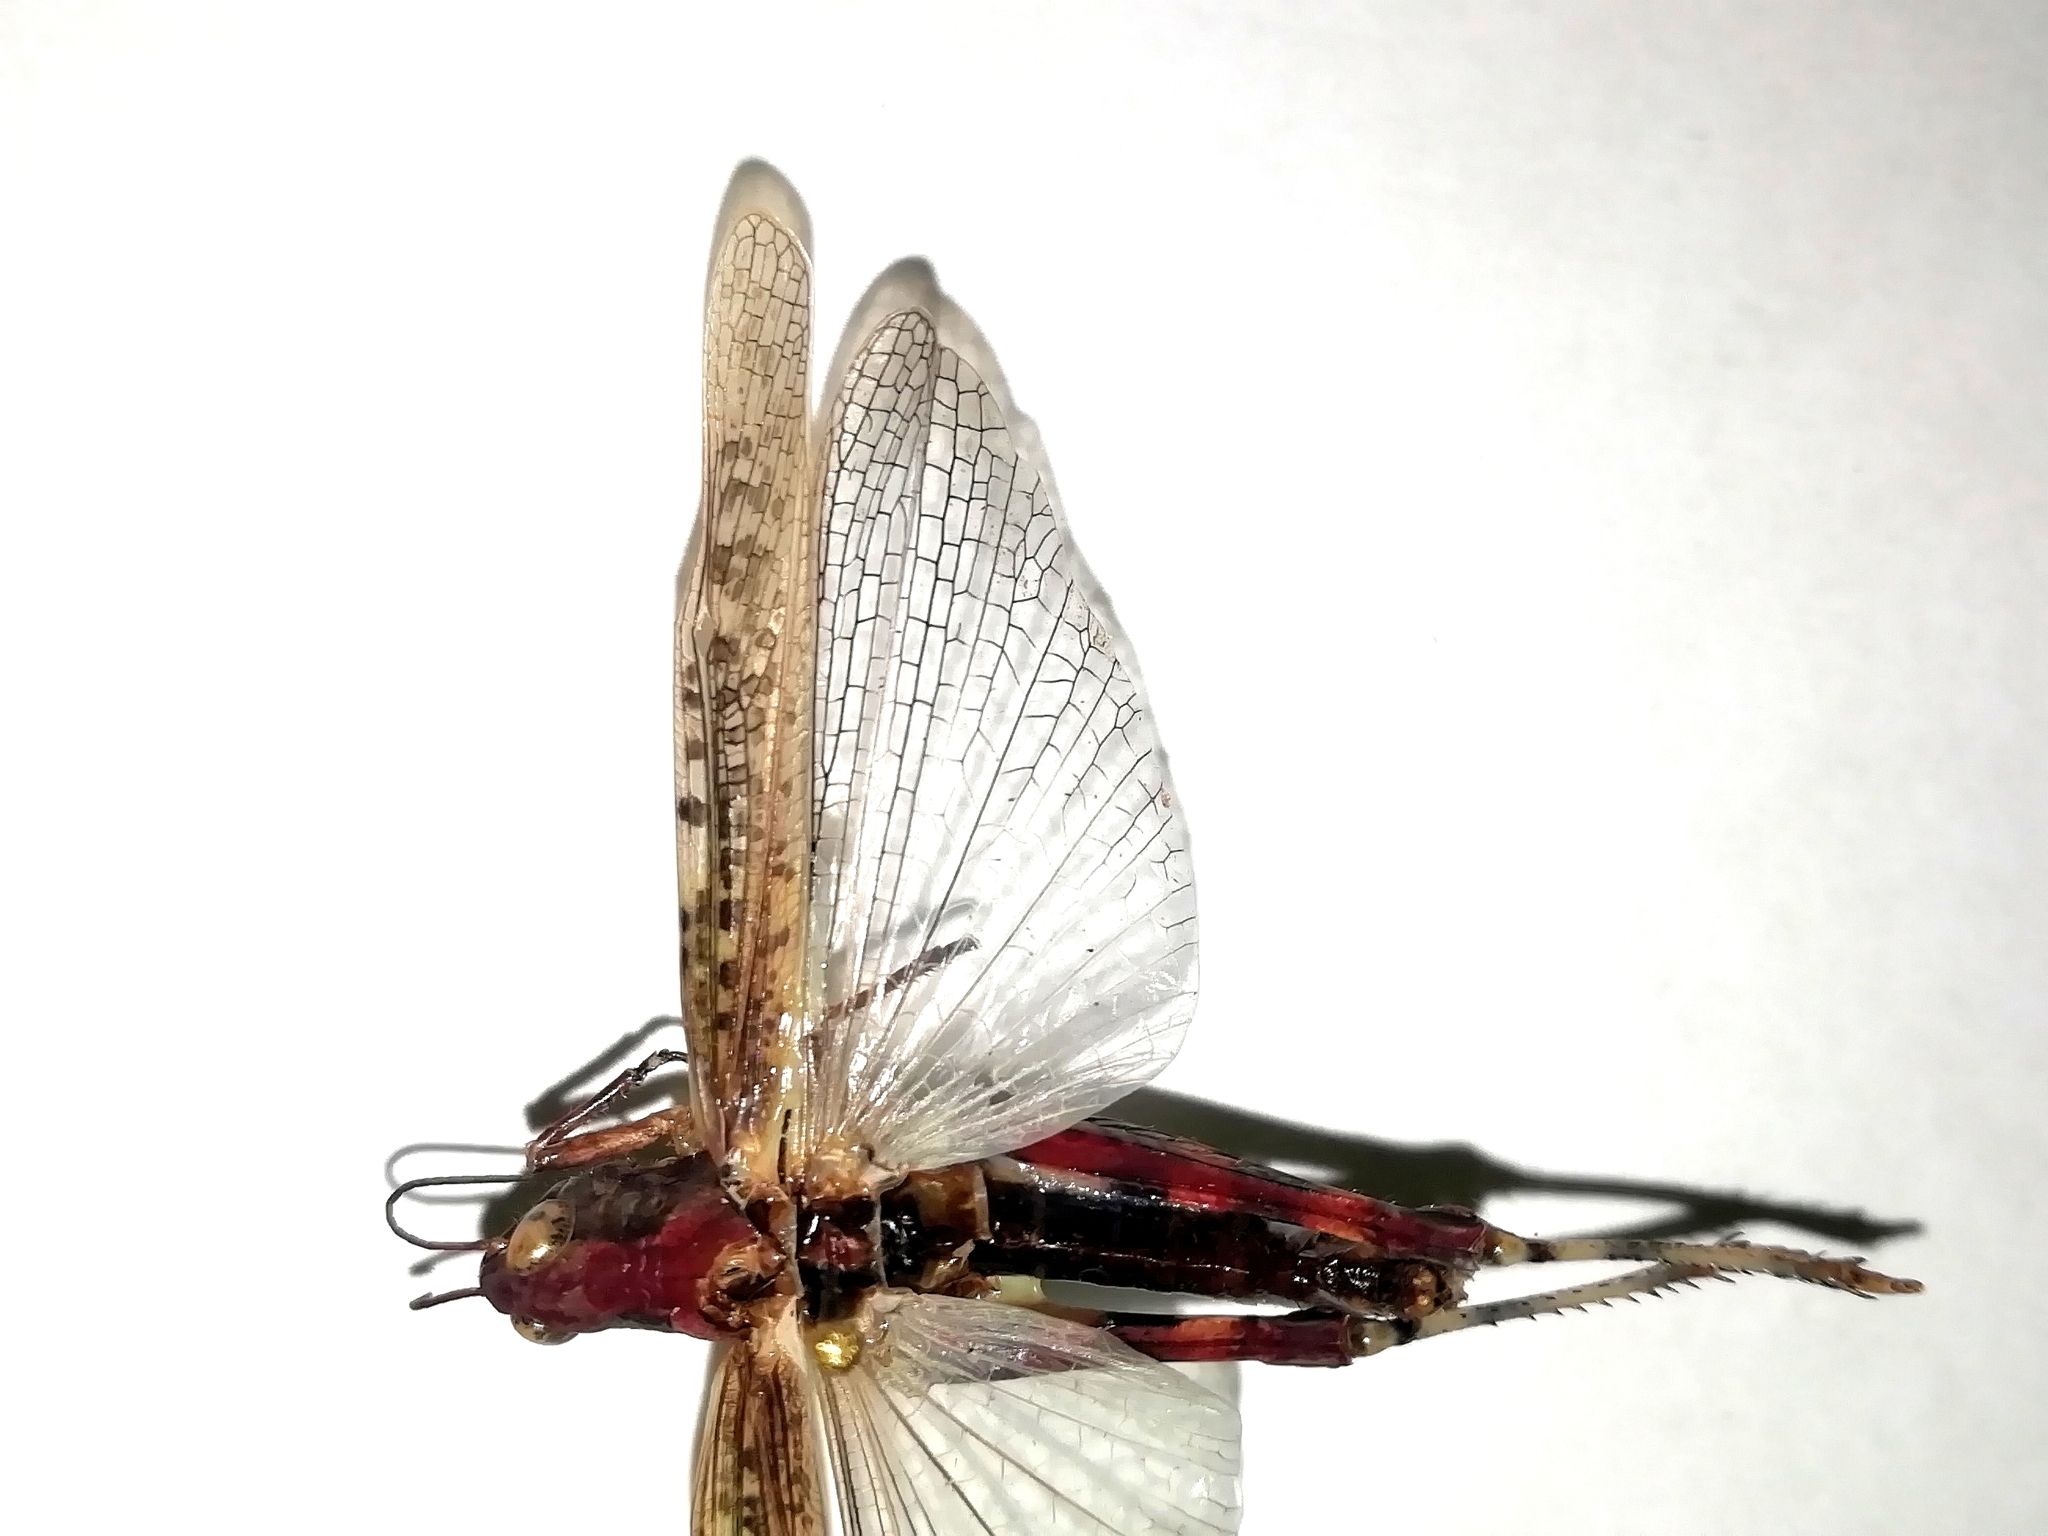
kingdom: Animalia
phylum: Arthropoda
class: Insecta
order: Orthoptera
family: Acrididae
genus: Epacromius
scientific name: Epacromius tergestinus
